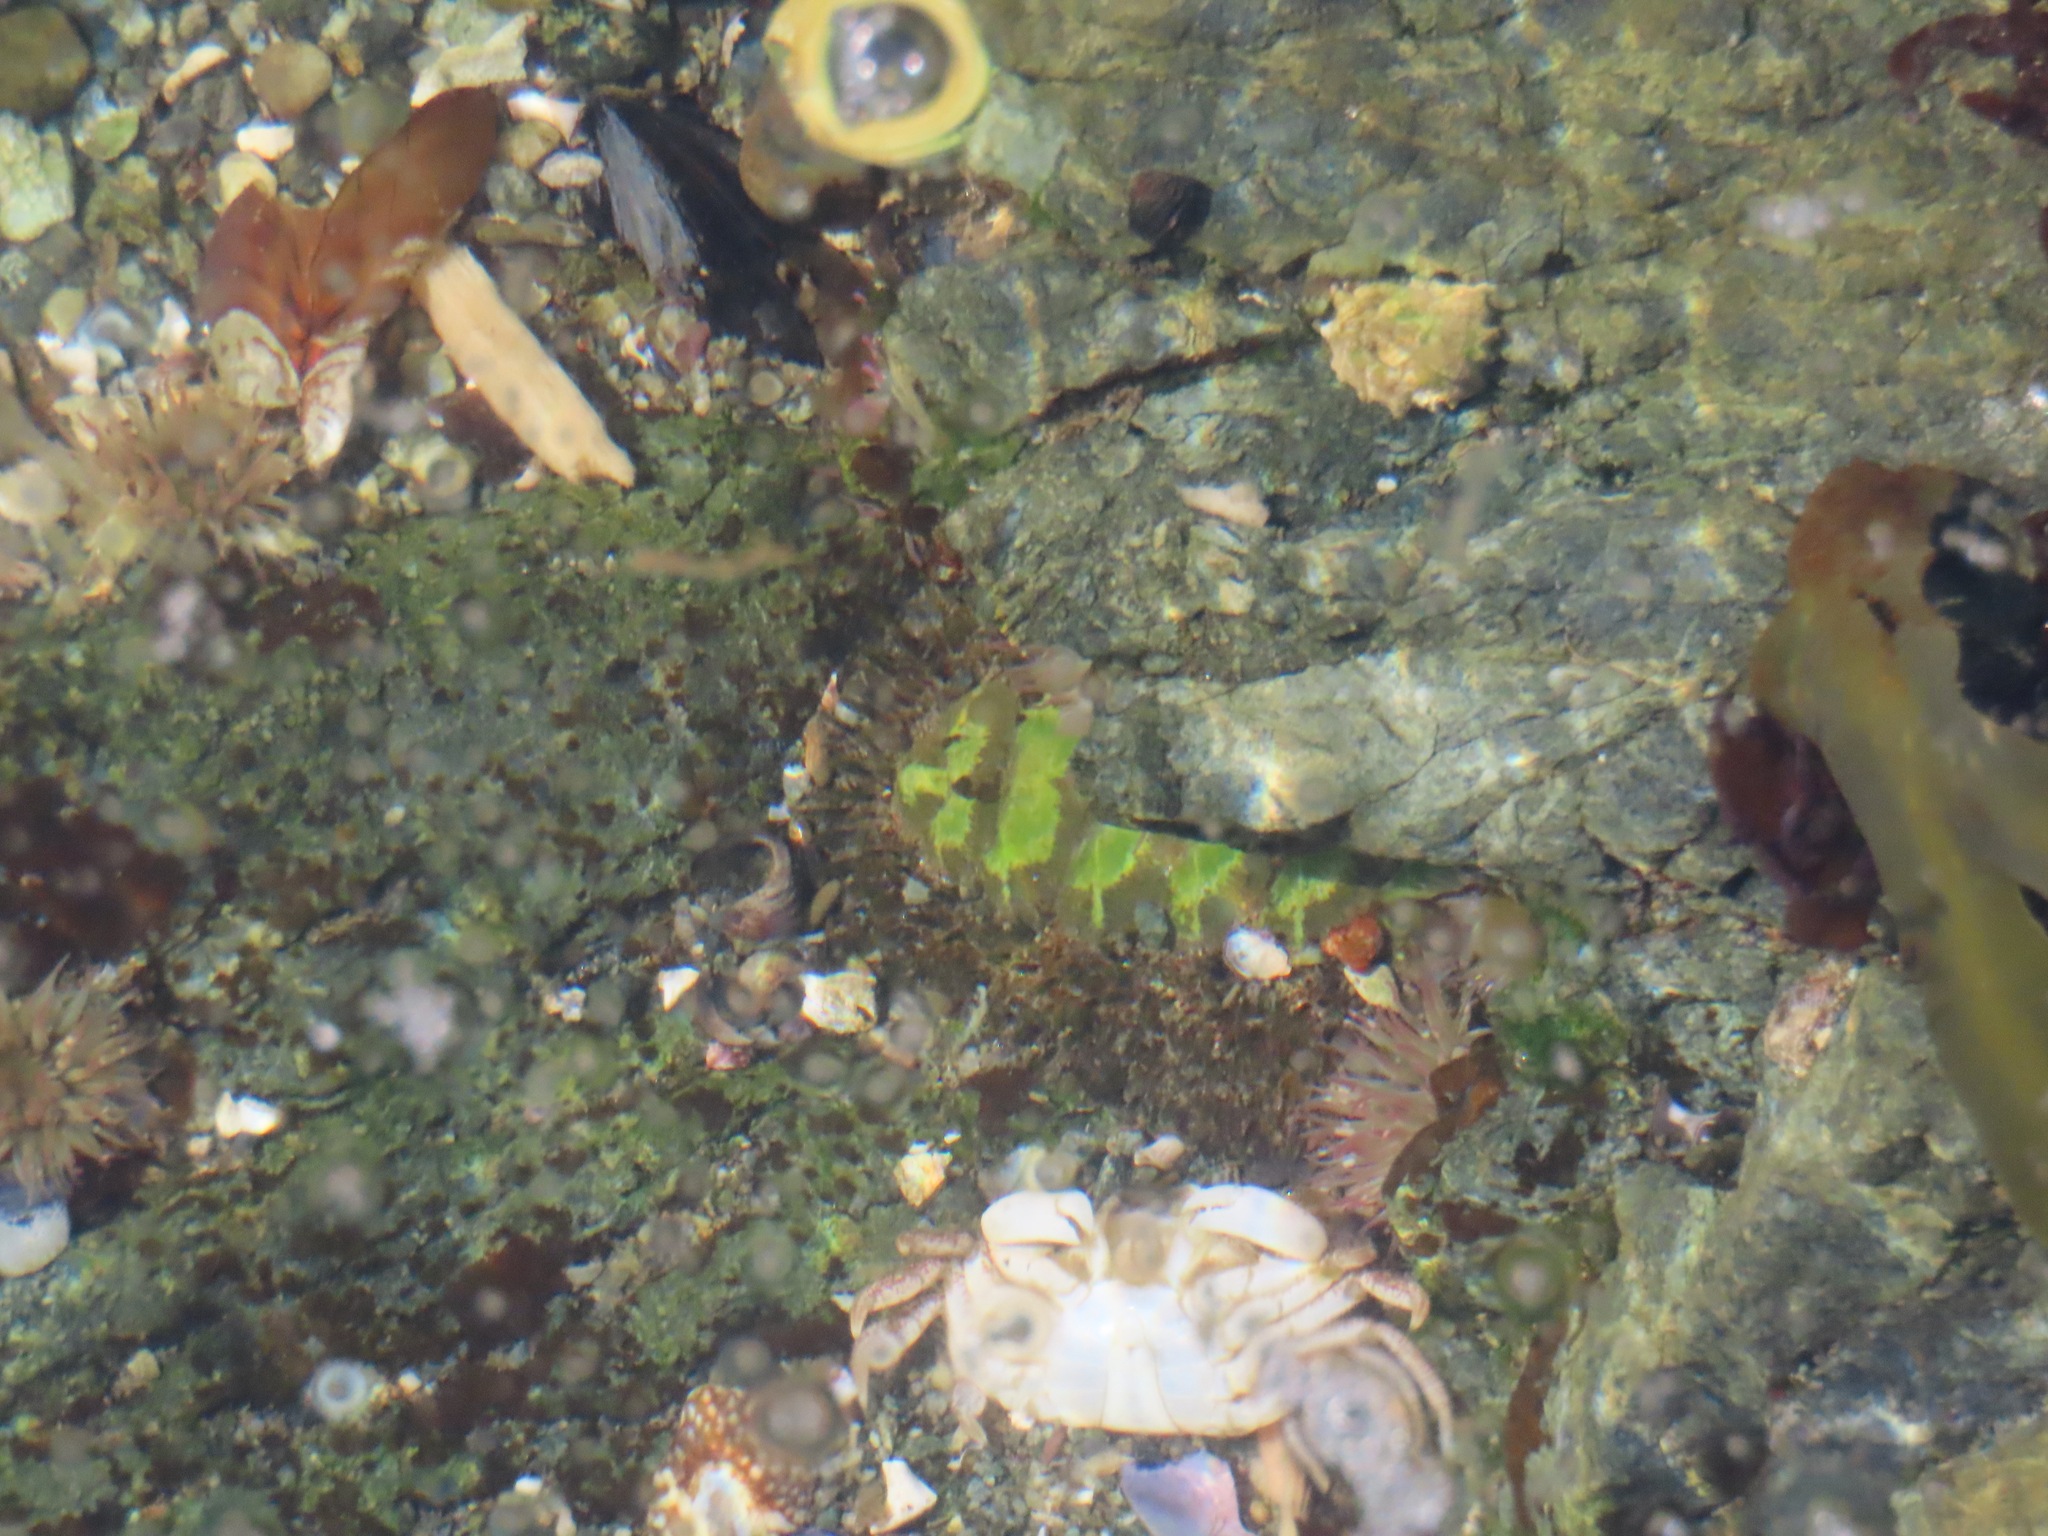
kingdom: Animalia
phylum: Mollusca
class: Polyplacophora
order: Chitonida
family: Mopaliidae
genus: Mopalia
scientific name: Mopalia muscosa
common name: Mossy chiton
